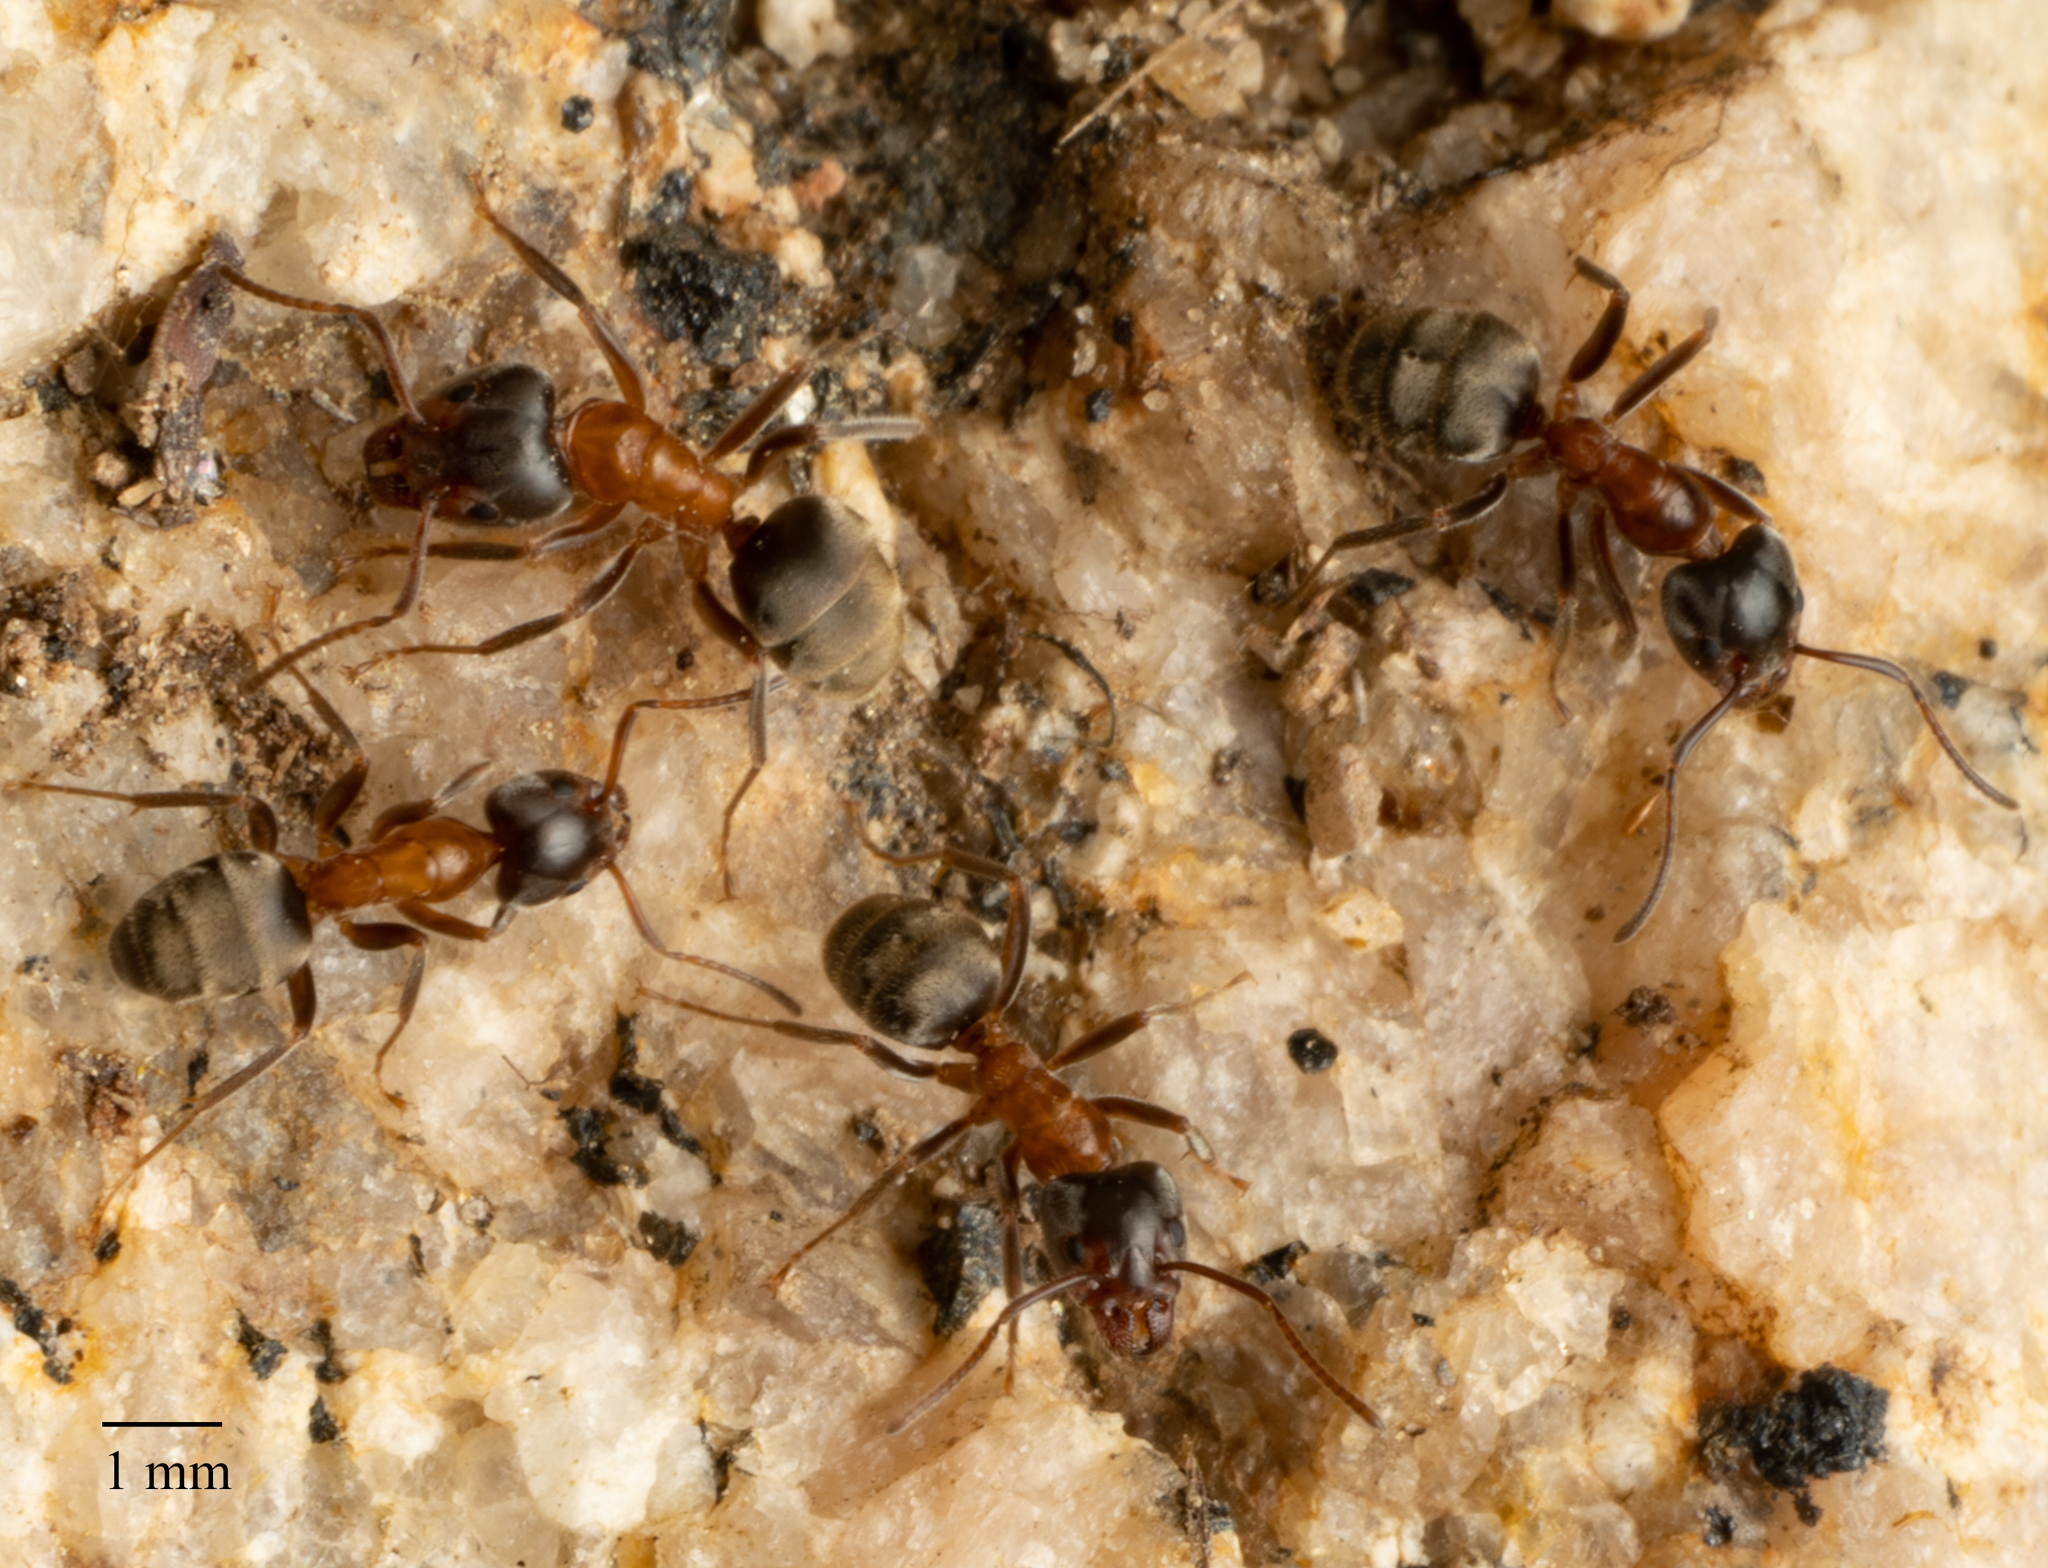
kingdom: Animalia
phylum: Arthropoda
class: Insecta
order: Hymenoptera
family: Formicidae
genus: Liometopum
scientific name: Liometopum occidentale
